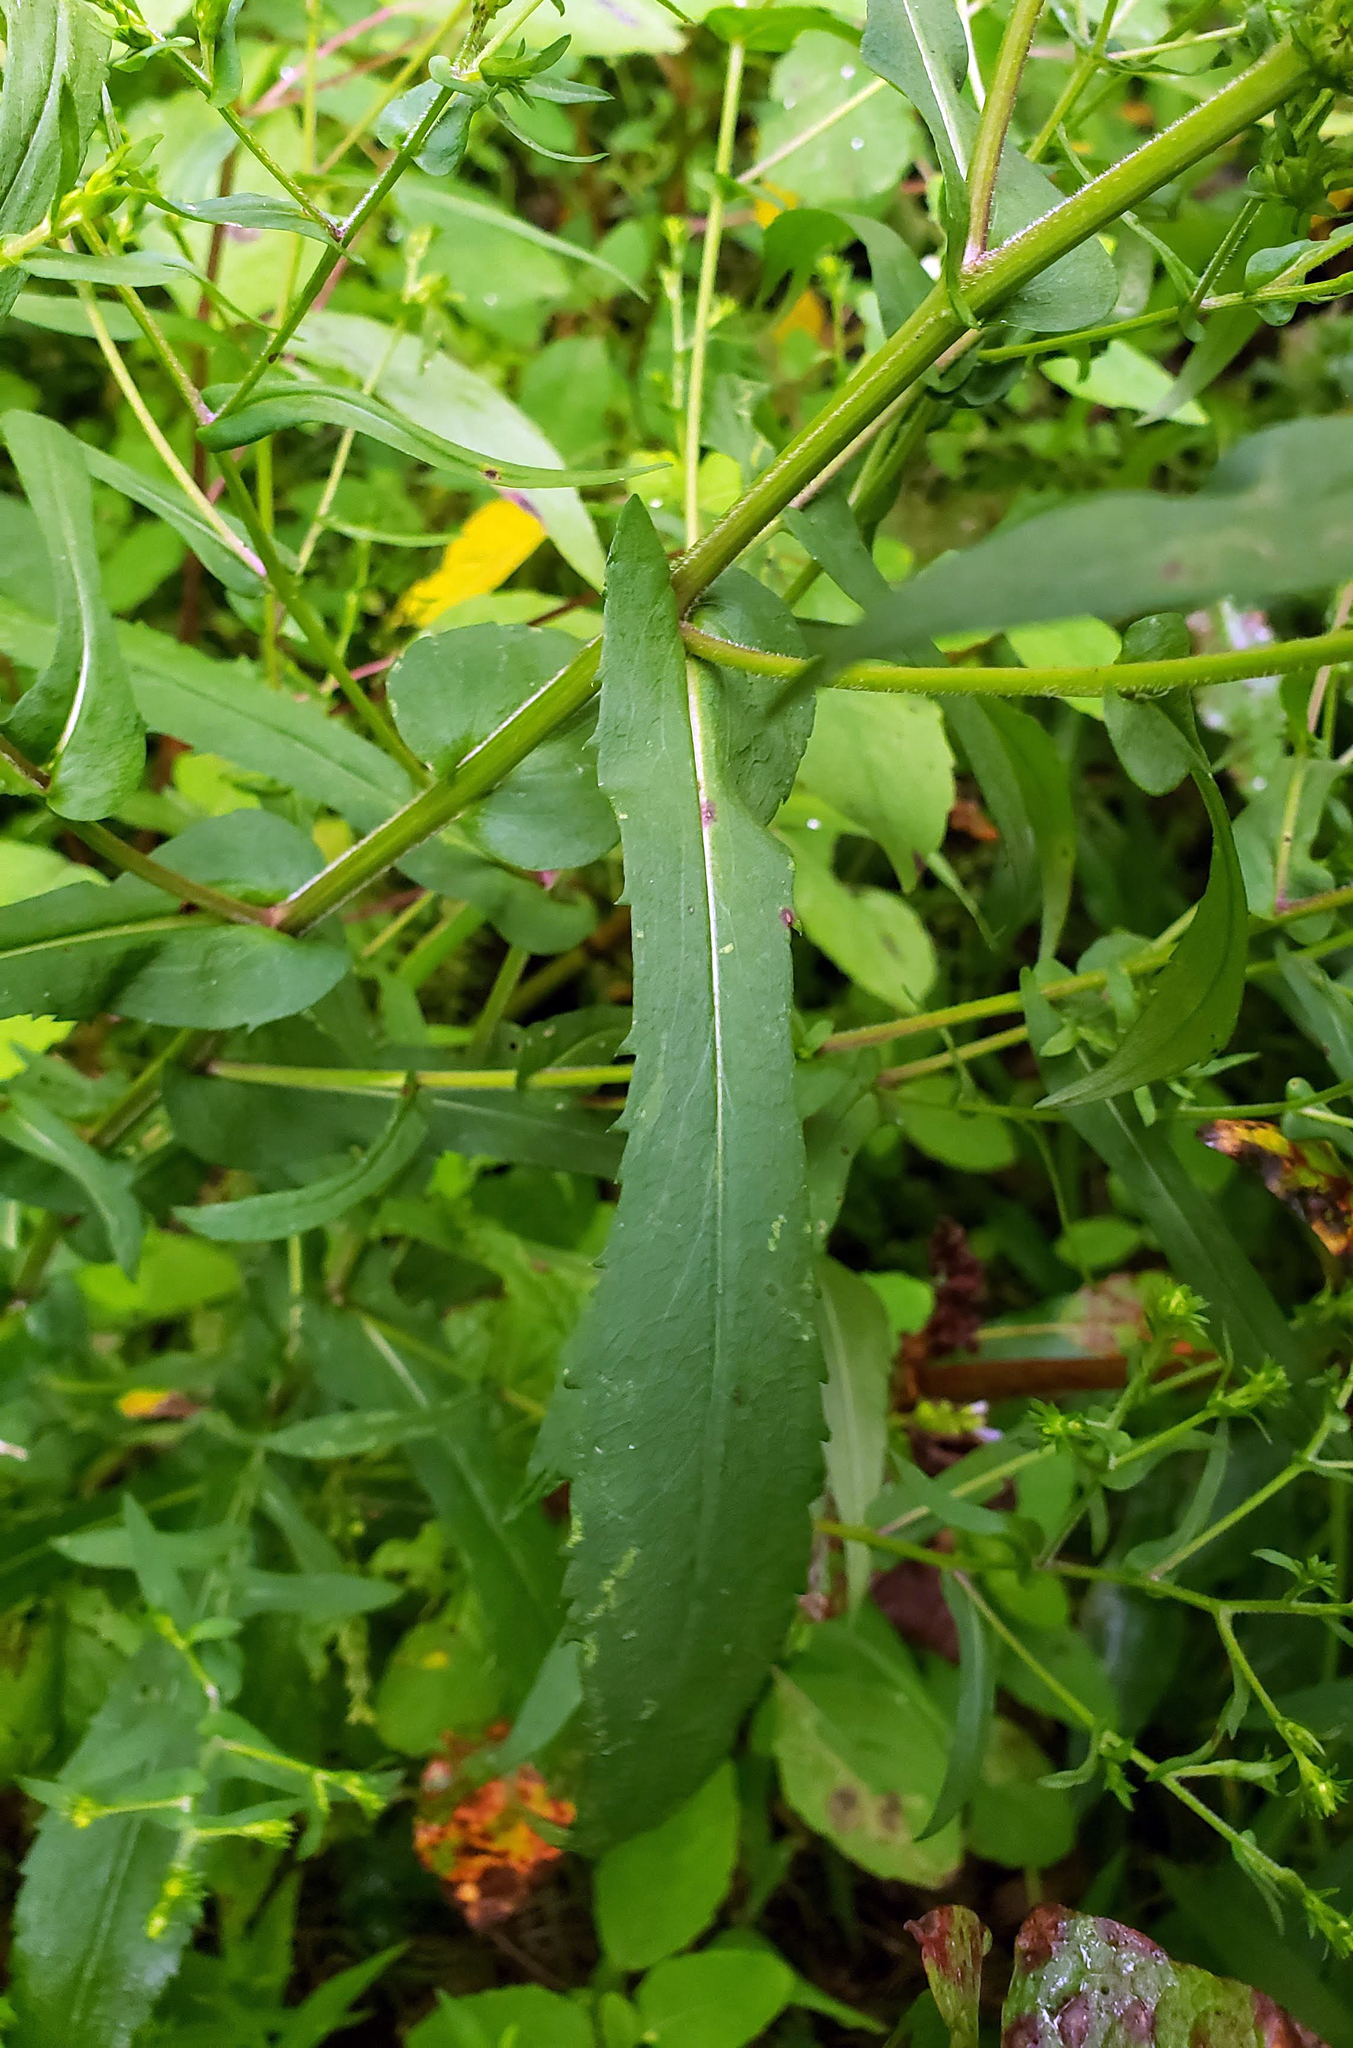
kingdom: Plantae
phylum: Tracheophyta
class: Magnoliopsida
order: Asterales
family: Asteraceae
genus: Symphyotrichum
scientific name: Symphyotrichum prenanthoides
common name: Crooked-stem aster
